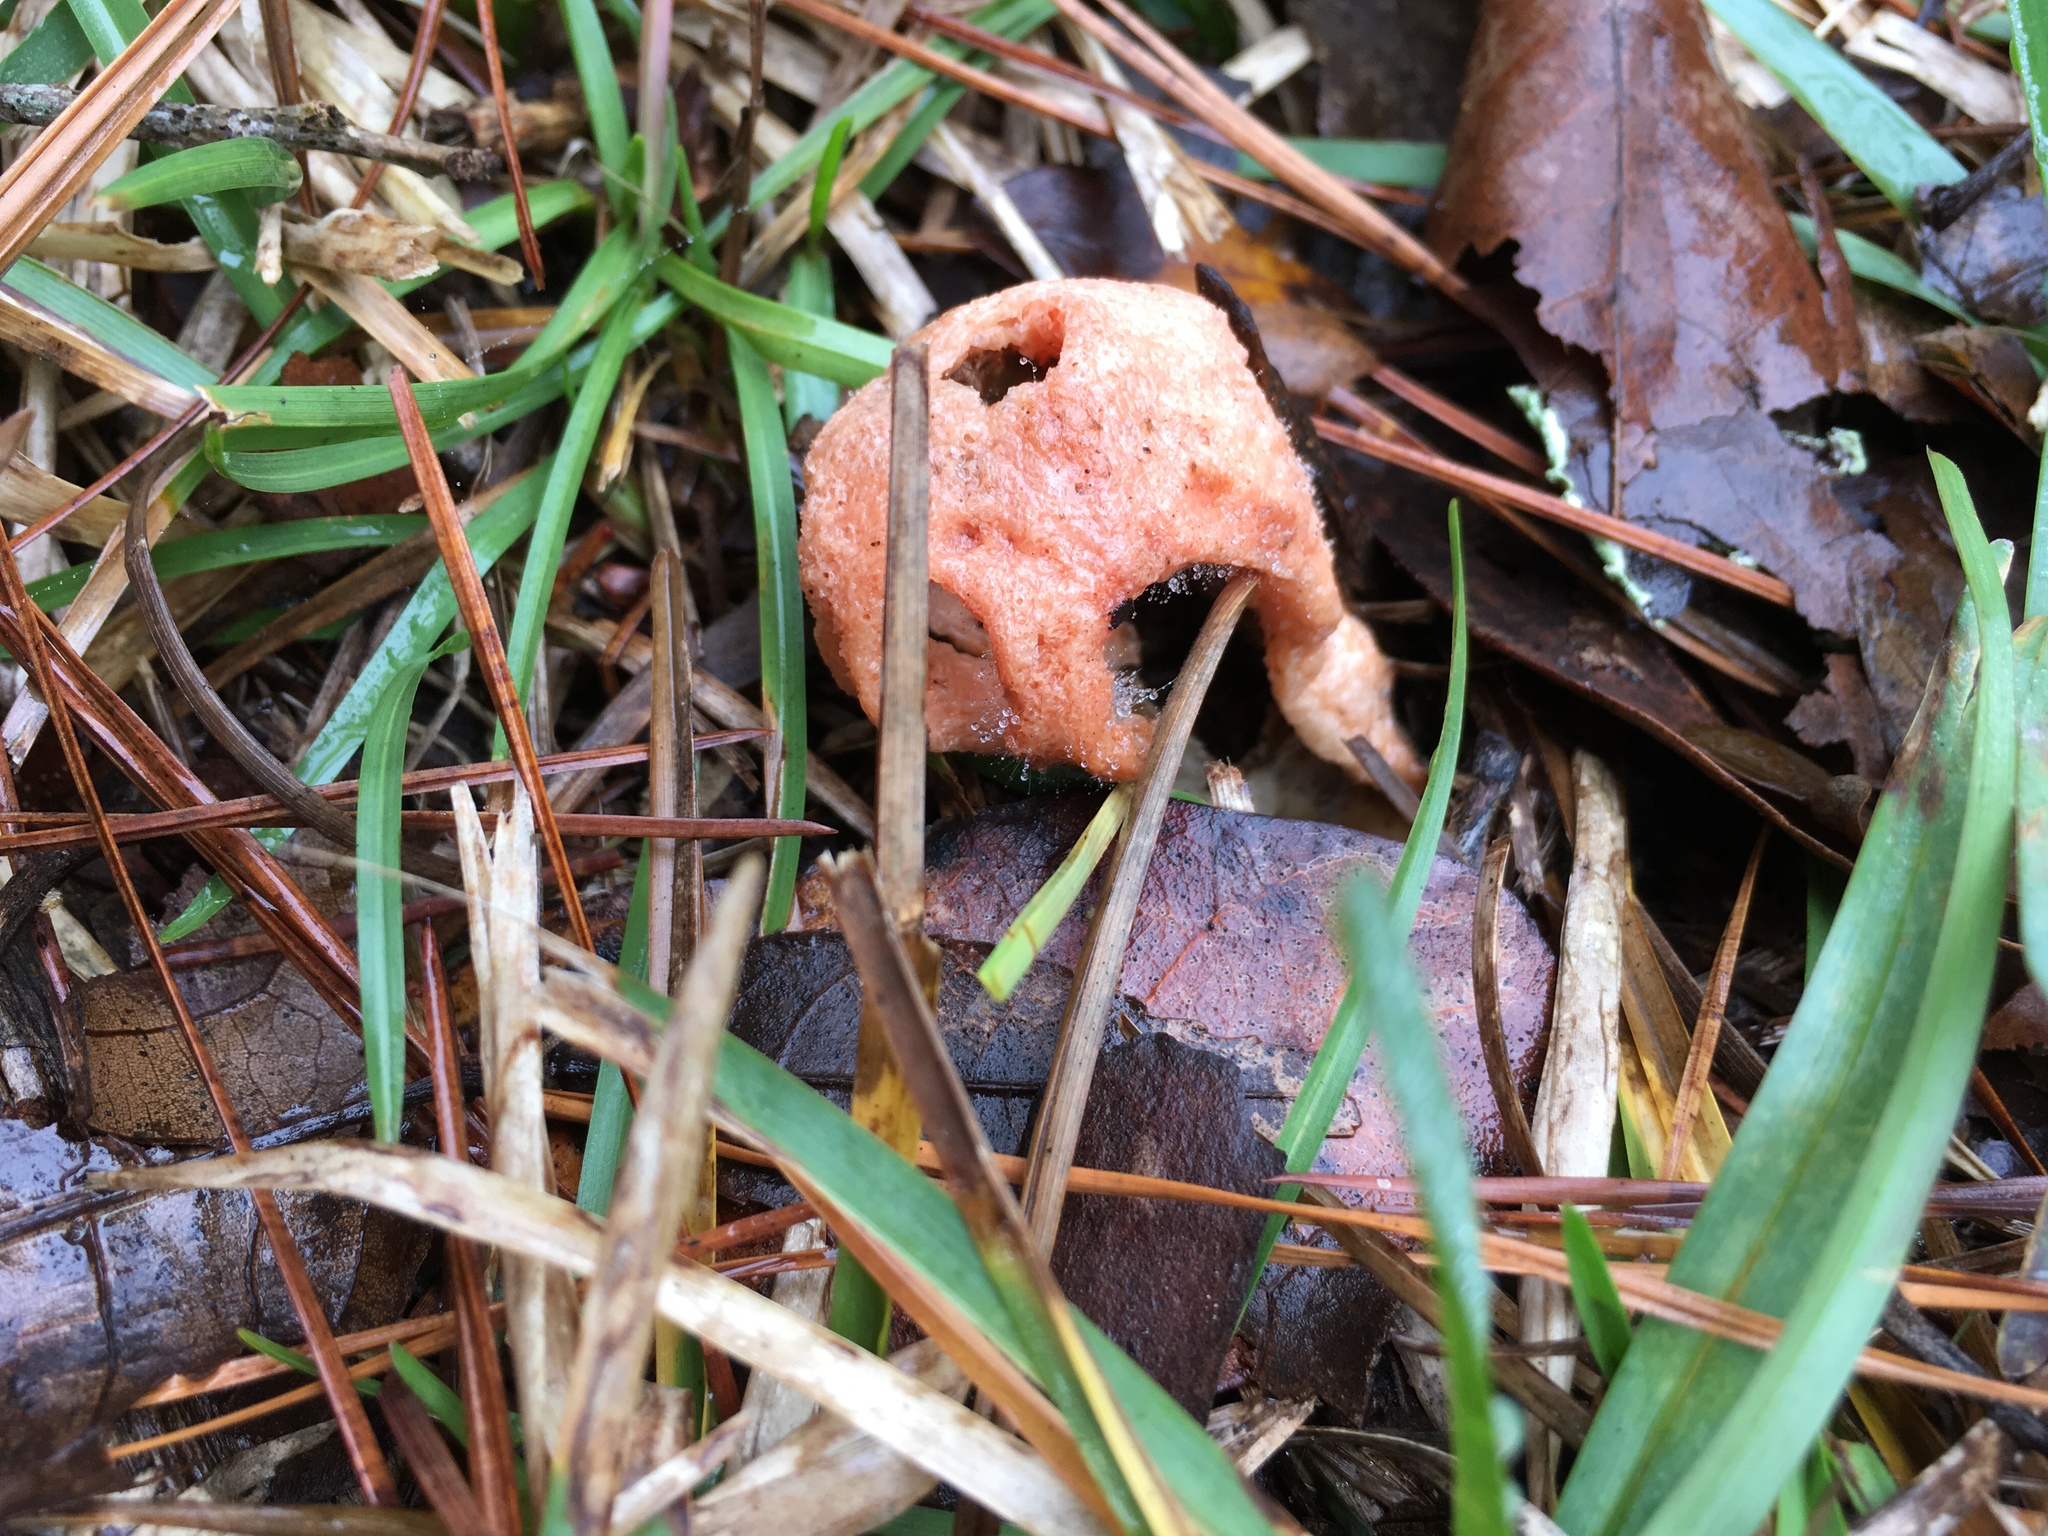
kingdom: Fungi
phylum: Basidiomycota
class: Agaricomycetes
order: Phallales
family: Phallaceae
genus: Clathrus
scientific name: Clathrus columnatus
